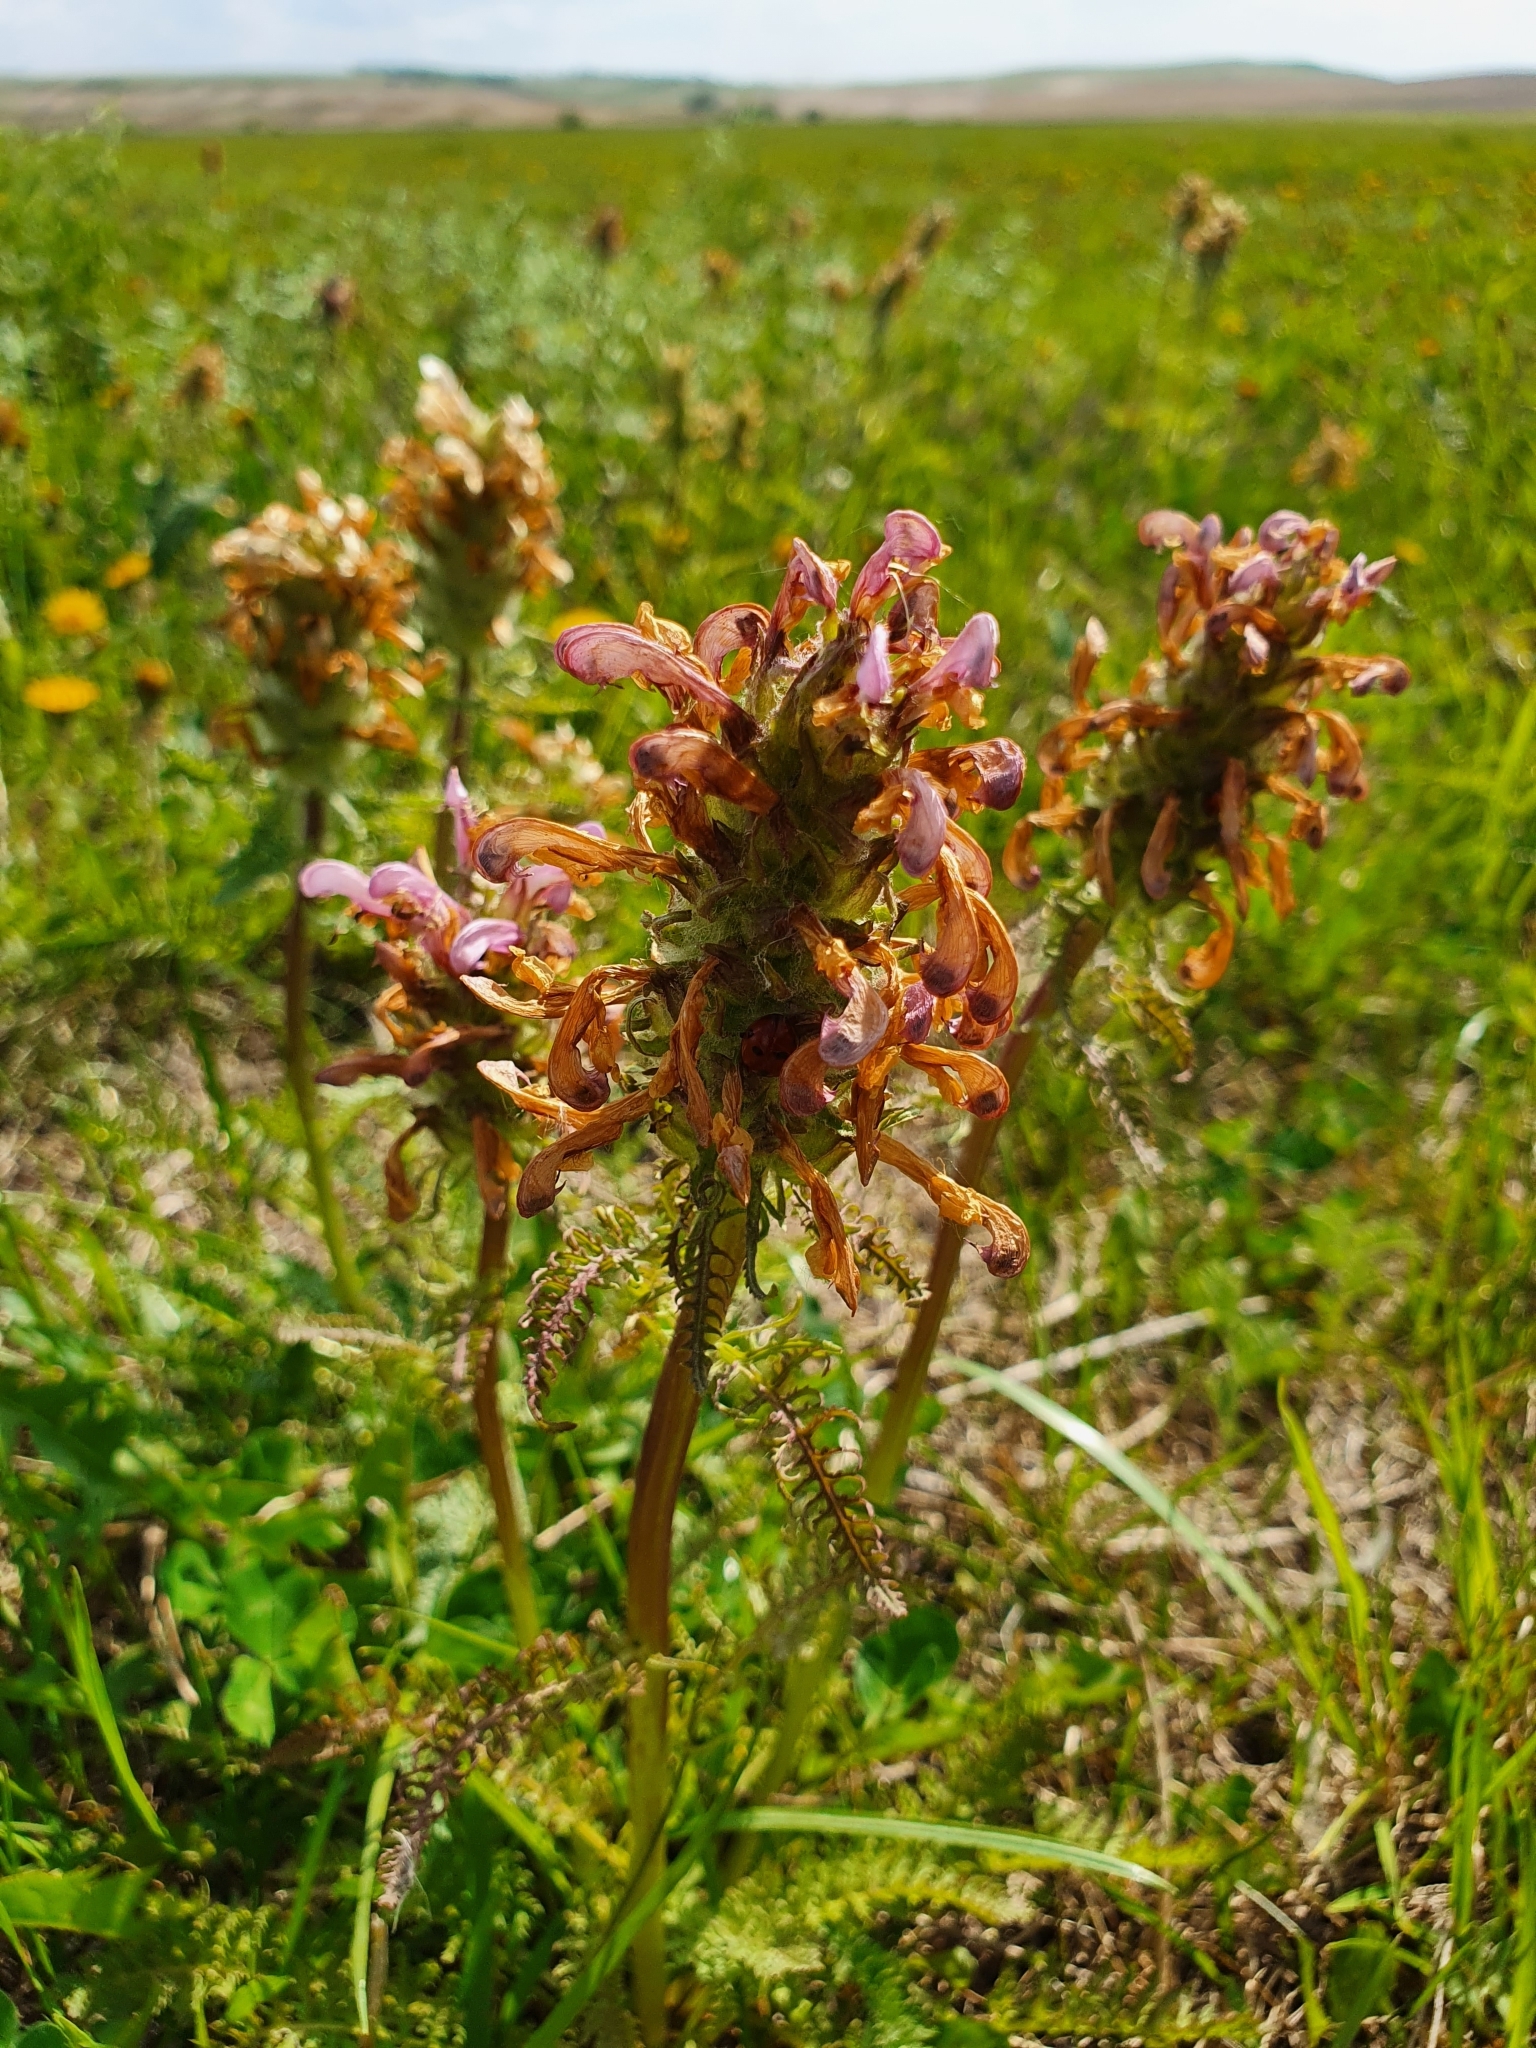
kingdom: Plantae
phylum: Tracheophyta
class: Magnoliopsida
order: Lamiales
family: Orobanchaceae
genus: Pedicularis
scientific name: Pedicularis dasystachys
